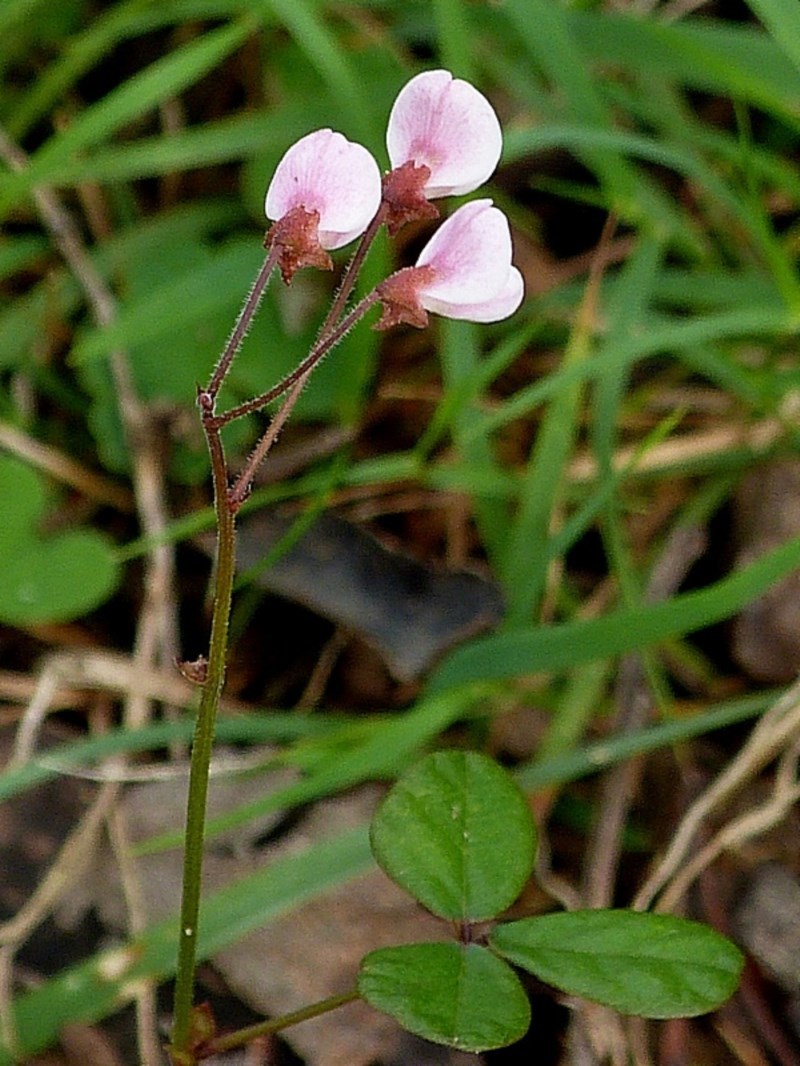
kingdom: Plantae
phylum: Tracheophyta
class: Magnoliopsida
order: Fabales
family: Fabaceae
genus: Pullenia
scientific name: Pullenia gunnii
